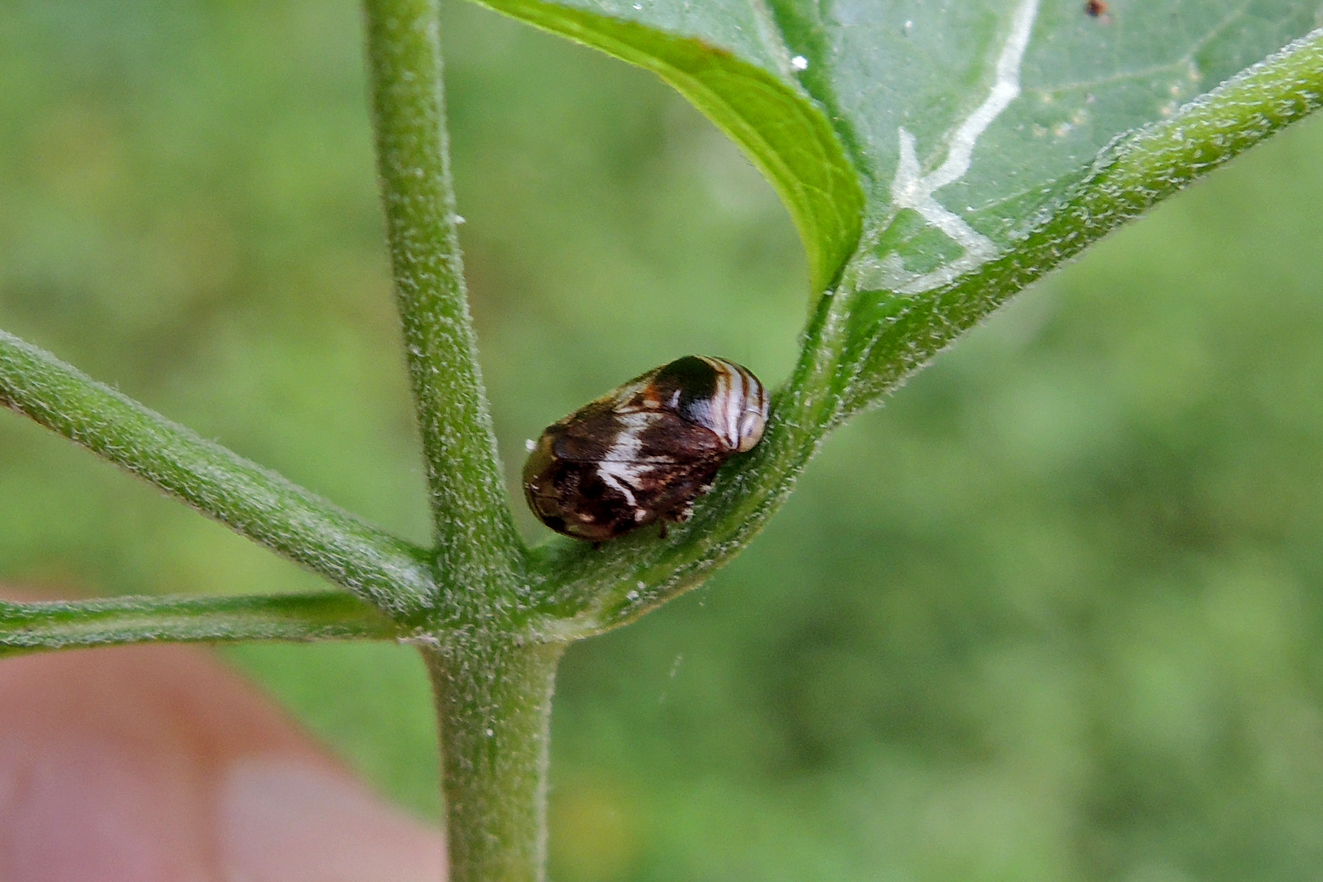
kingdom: Animalia
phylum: Arthropoda
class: Insecta
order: Hemiptera
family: Clastopteridae
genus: Clastoptera
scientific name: Clastoptera obtusa
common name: Alder spittlebug
